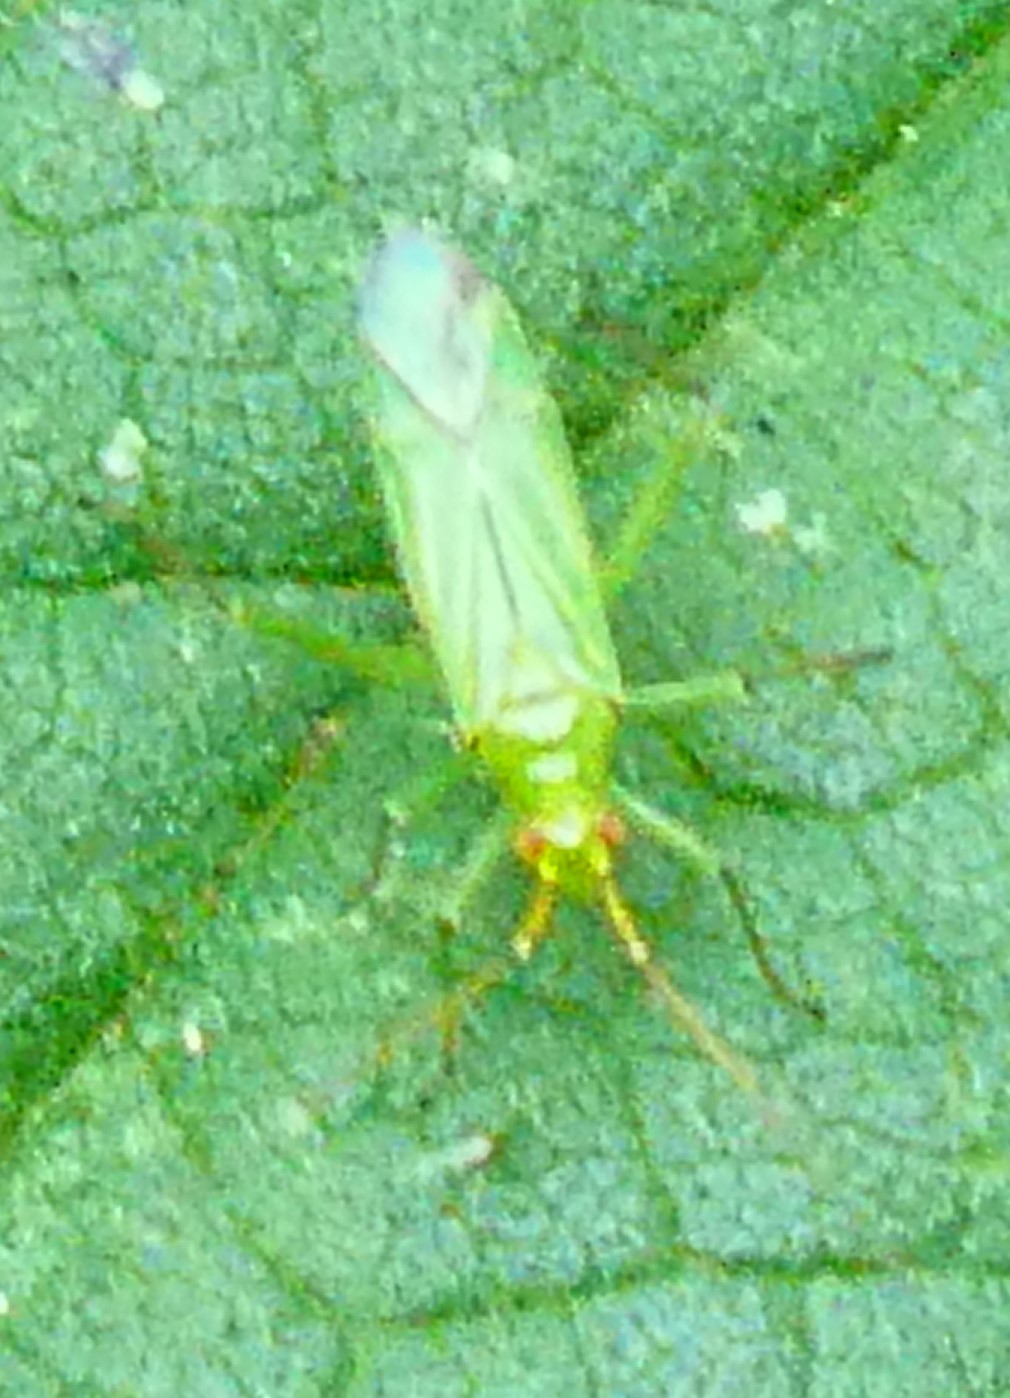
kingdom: Animalia
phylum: Arthropoda
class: Insecta
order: Hemiptera
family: Miridae
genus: Blepharidopterus
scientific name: Blepharidopterus angulatus
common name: Plant bug
